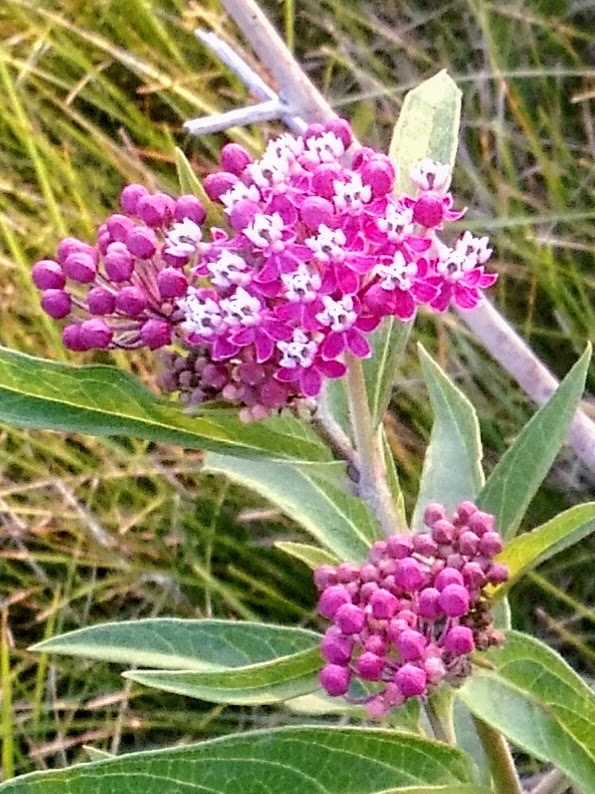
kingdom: Plantae
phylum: Tracheophyta
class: Magnoliopsida
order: Gentianales
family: Apocynaceae
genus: Asclepias
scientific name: Asclepias incarnata
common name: Swamp milkweed
